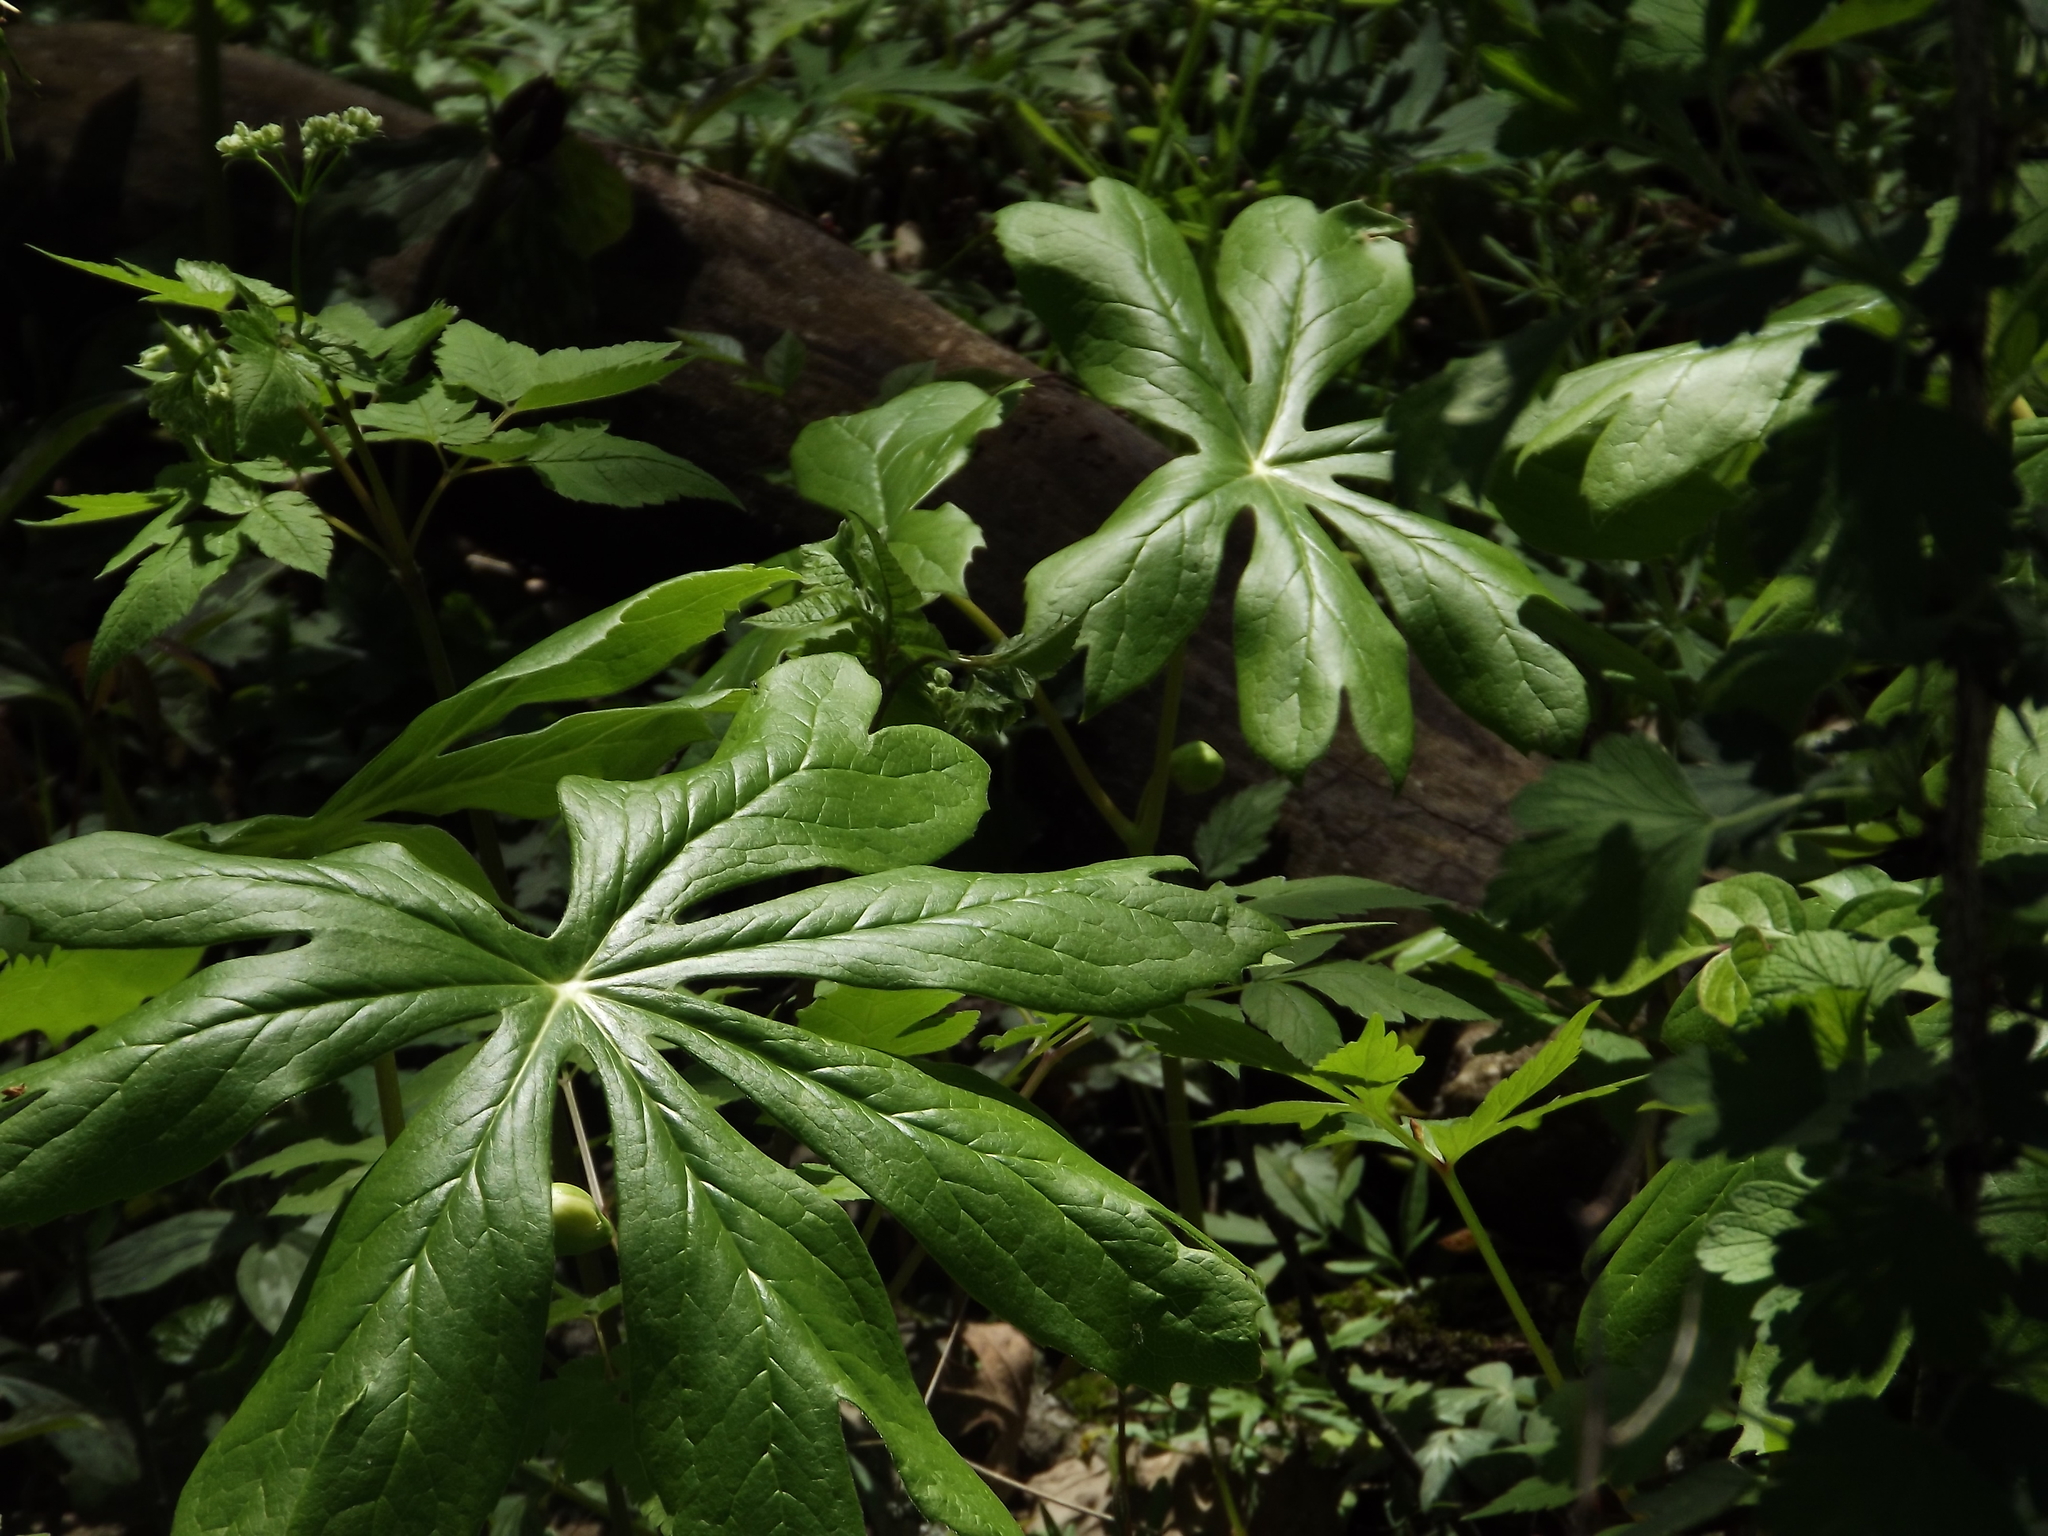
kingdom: Plantae
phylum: Tracheophyta
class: Magnoliopsida
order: Ranunculales
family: Berberidaceae
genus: Podophyllum
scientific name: Podophyllum peltatum
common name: Wild mandrake
